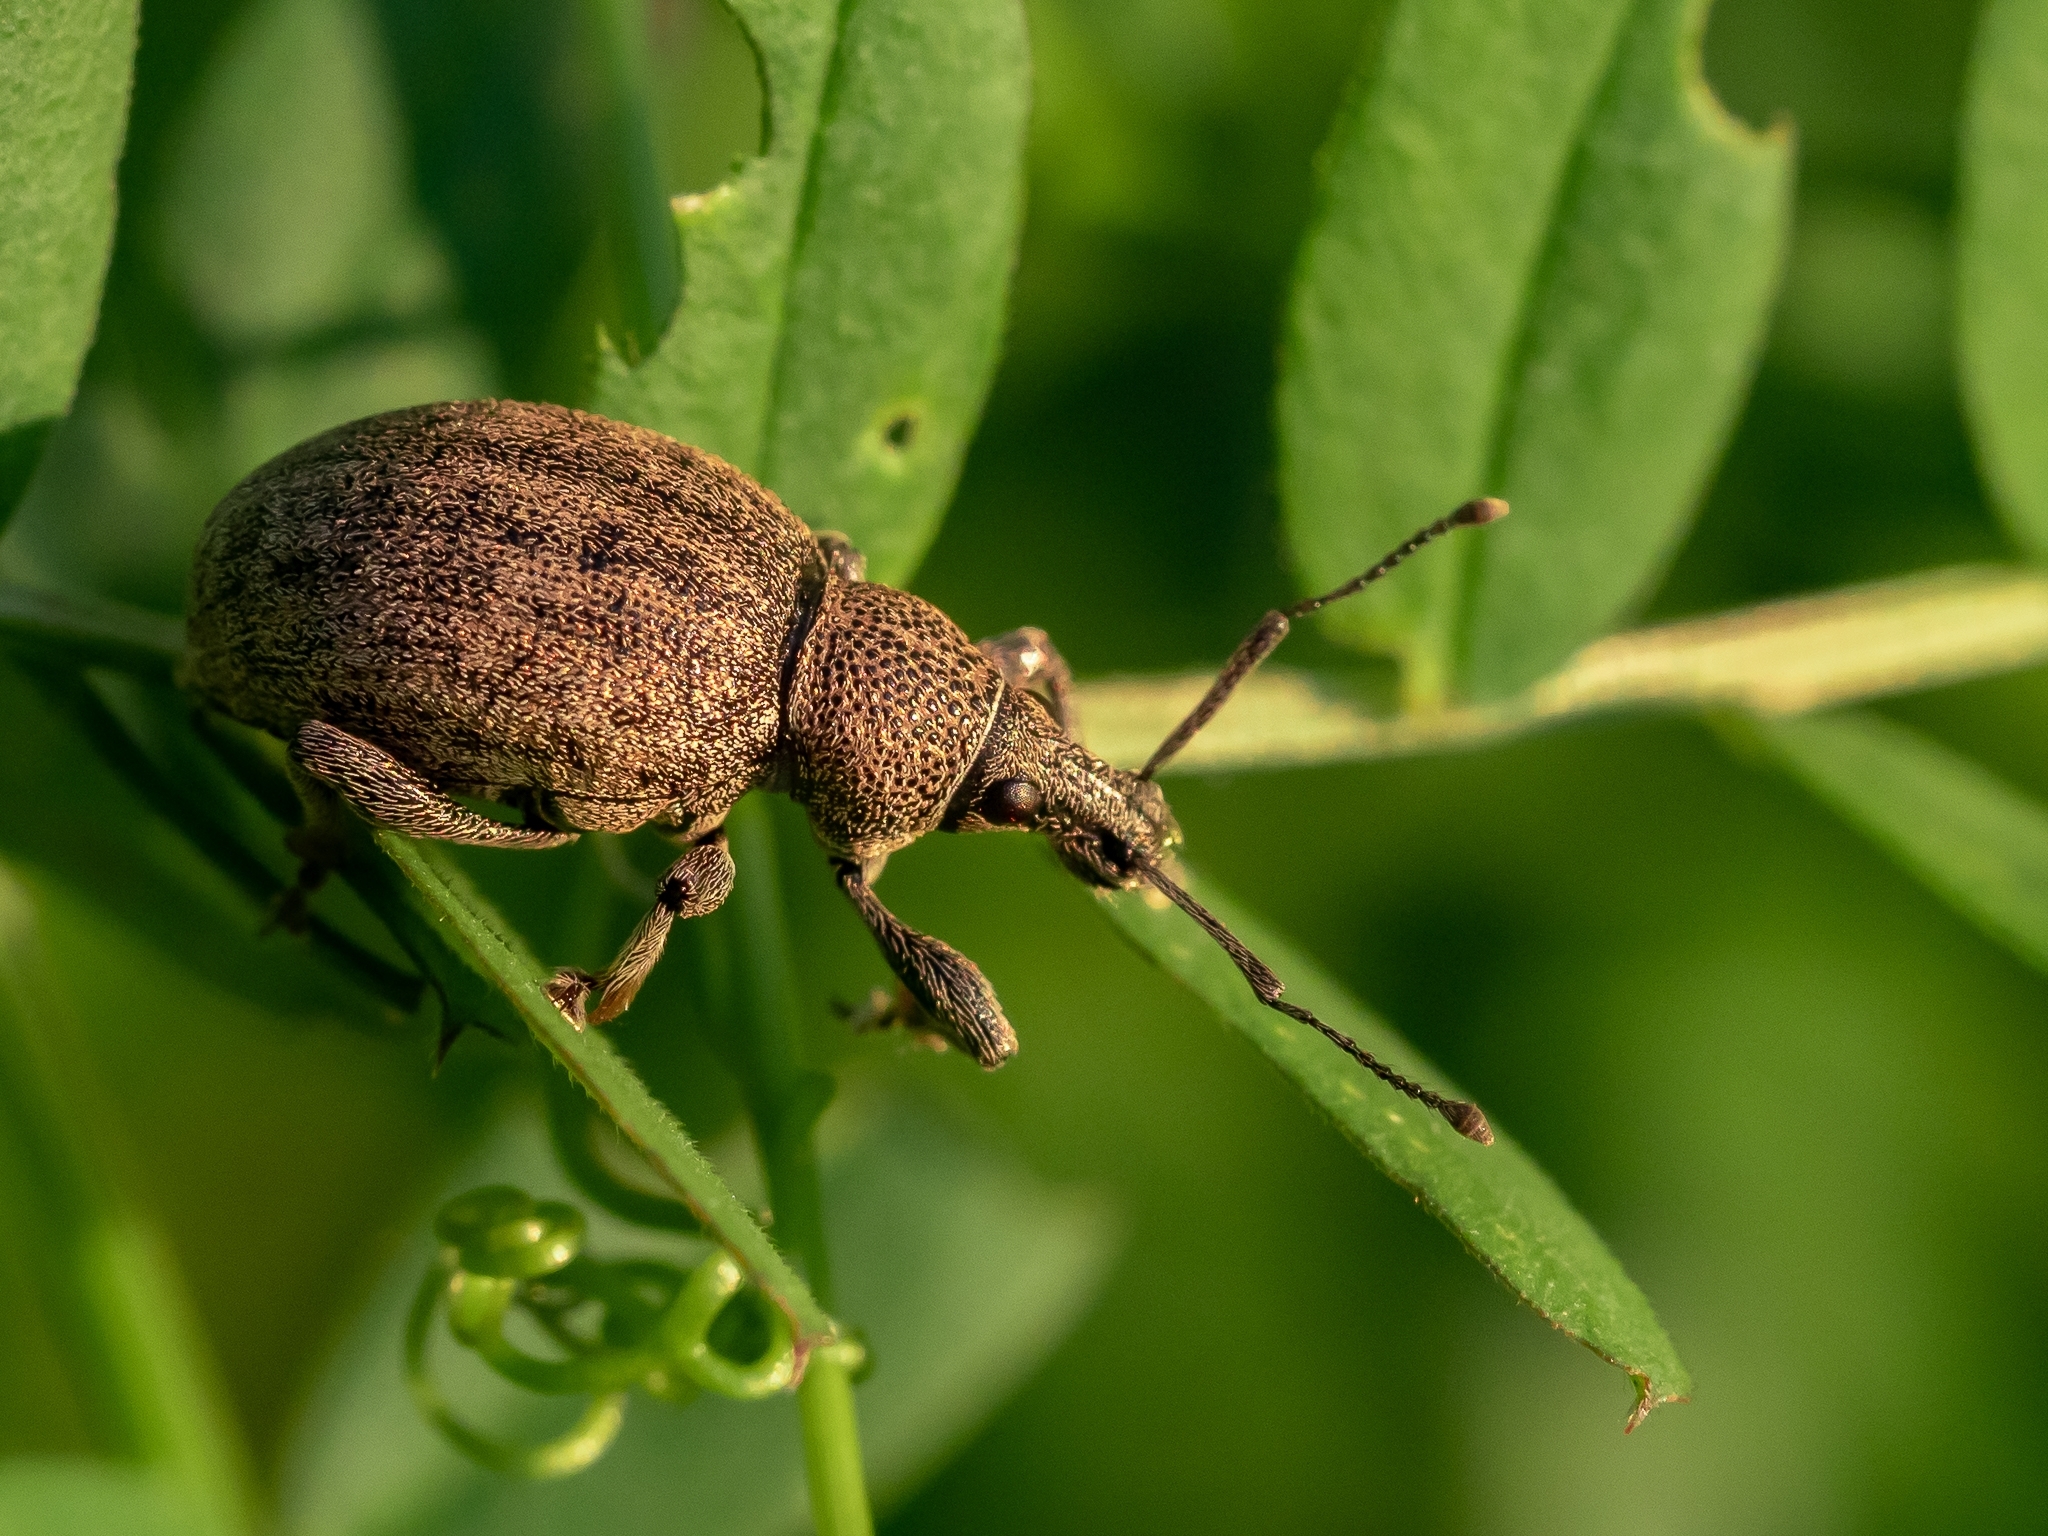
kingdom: Animalia
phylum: Arthropoda
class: Insecta
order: Coleoptera
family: Curculionidae
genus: Otiorhynchus
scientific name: Otiorhynchus ligustici
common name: Weevil
